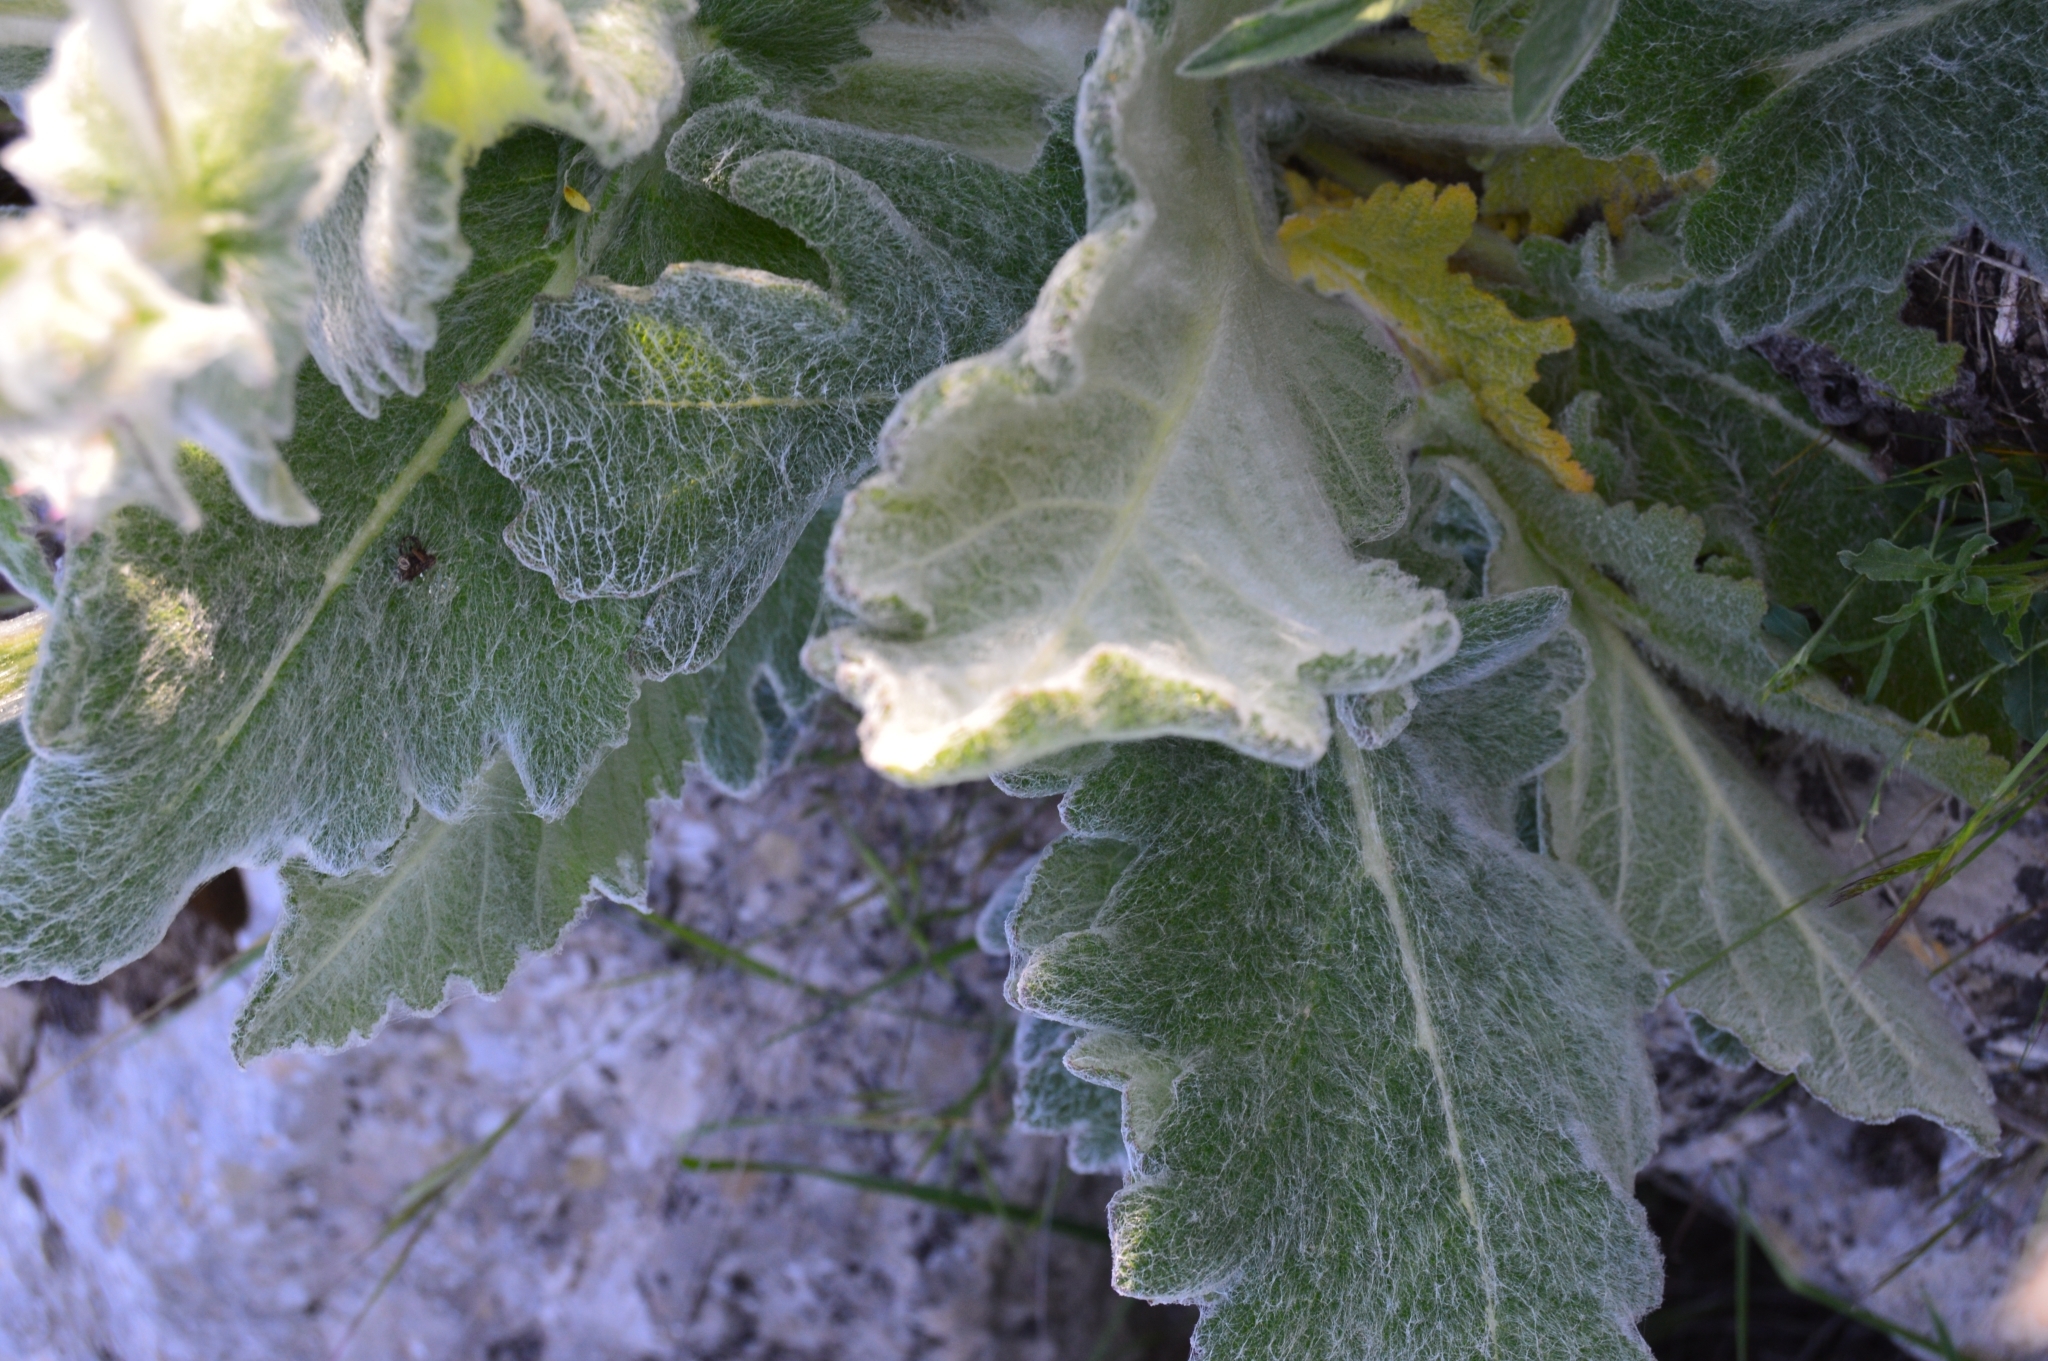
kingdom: Plantae
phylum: Tracheophyta
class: Magnoliopsida
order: Lamiales
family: Lamiaceae
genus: Salvia
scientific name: Salvia aethiopis
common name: Mediterranean sage
